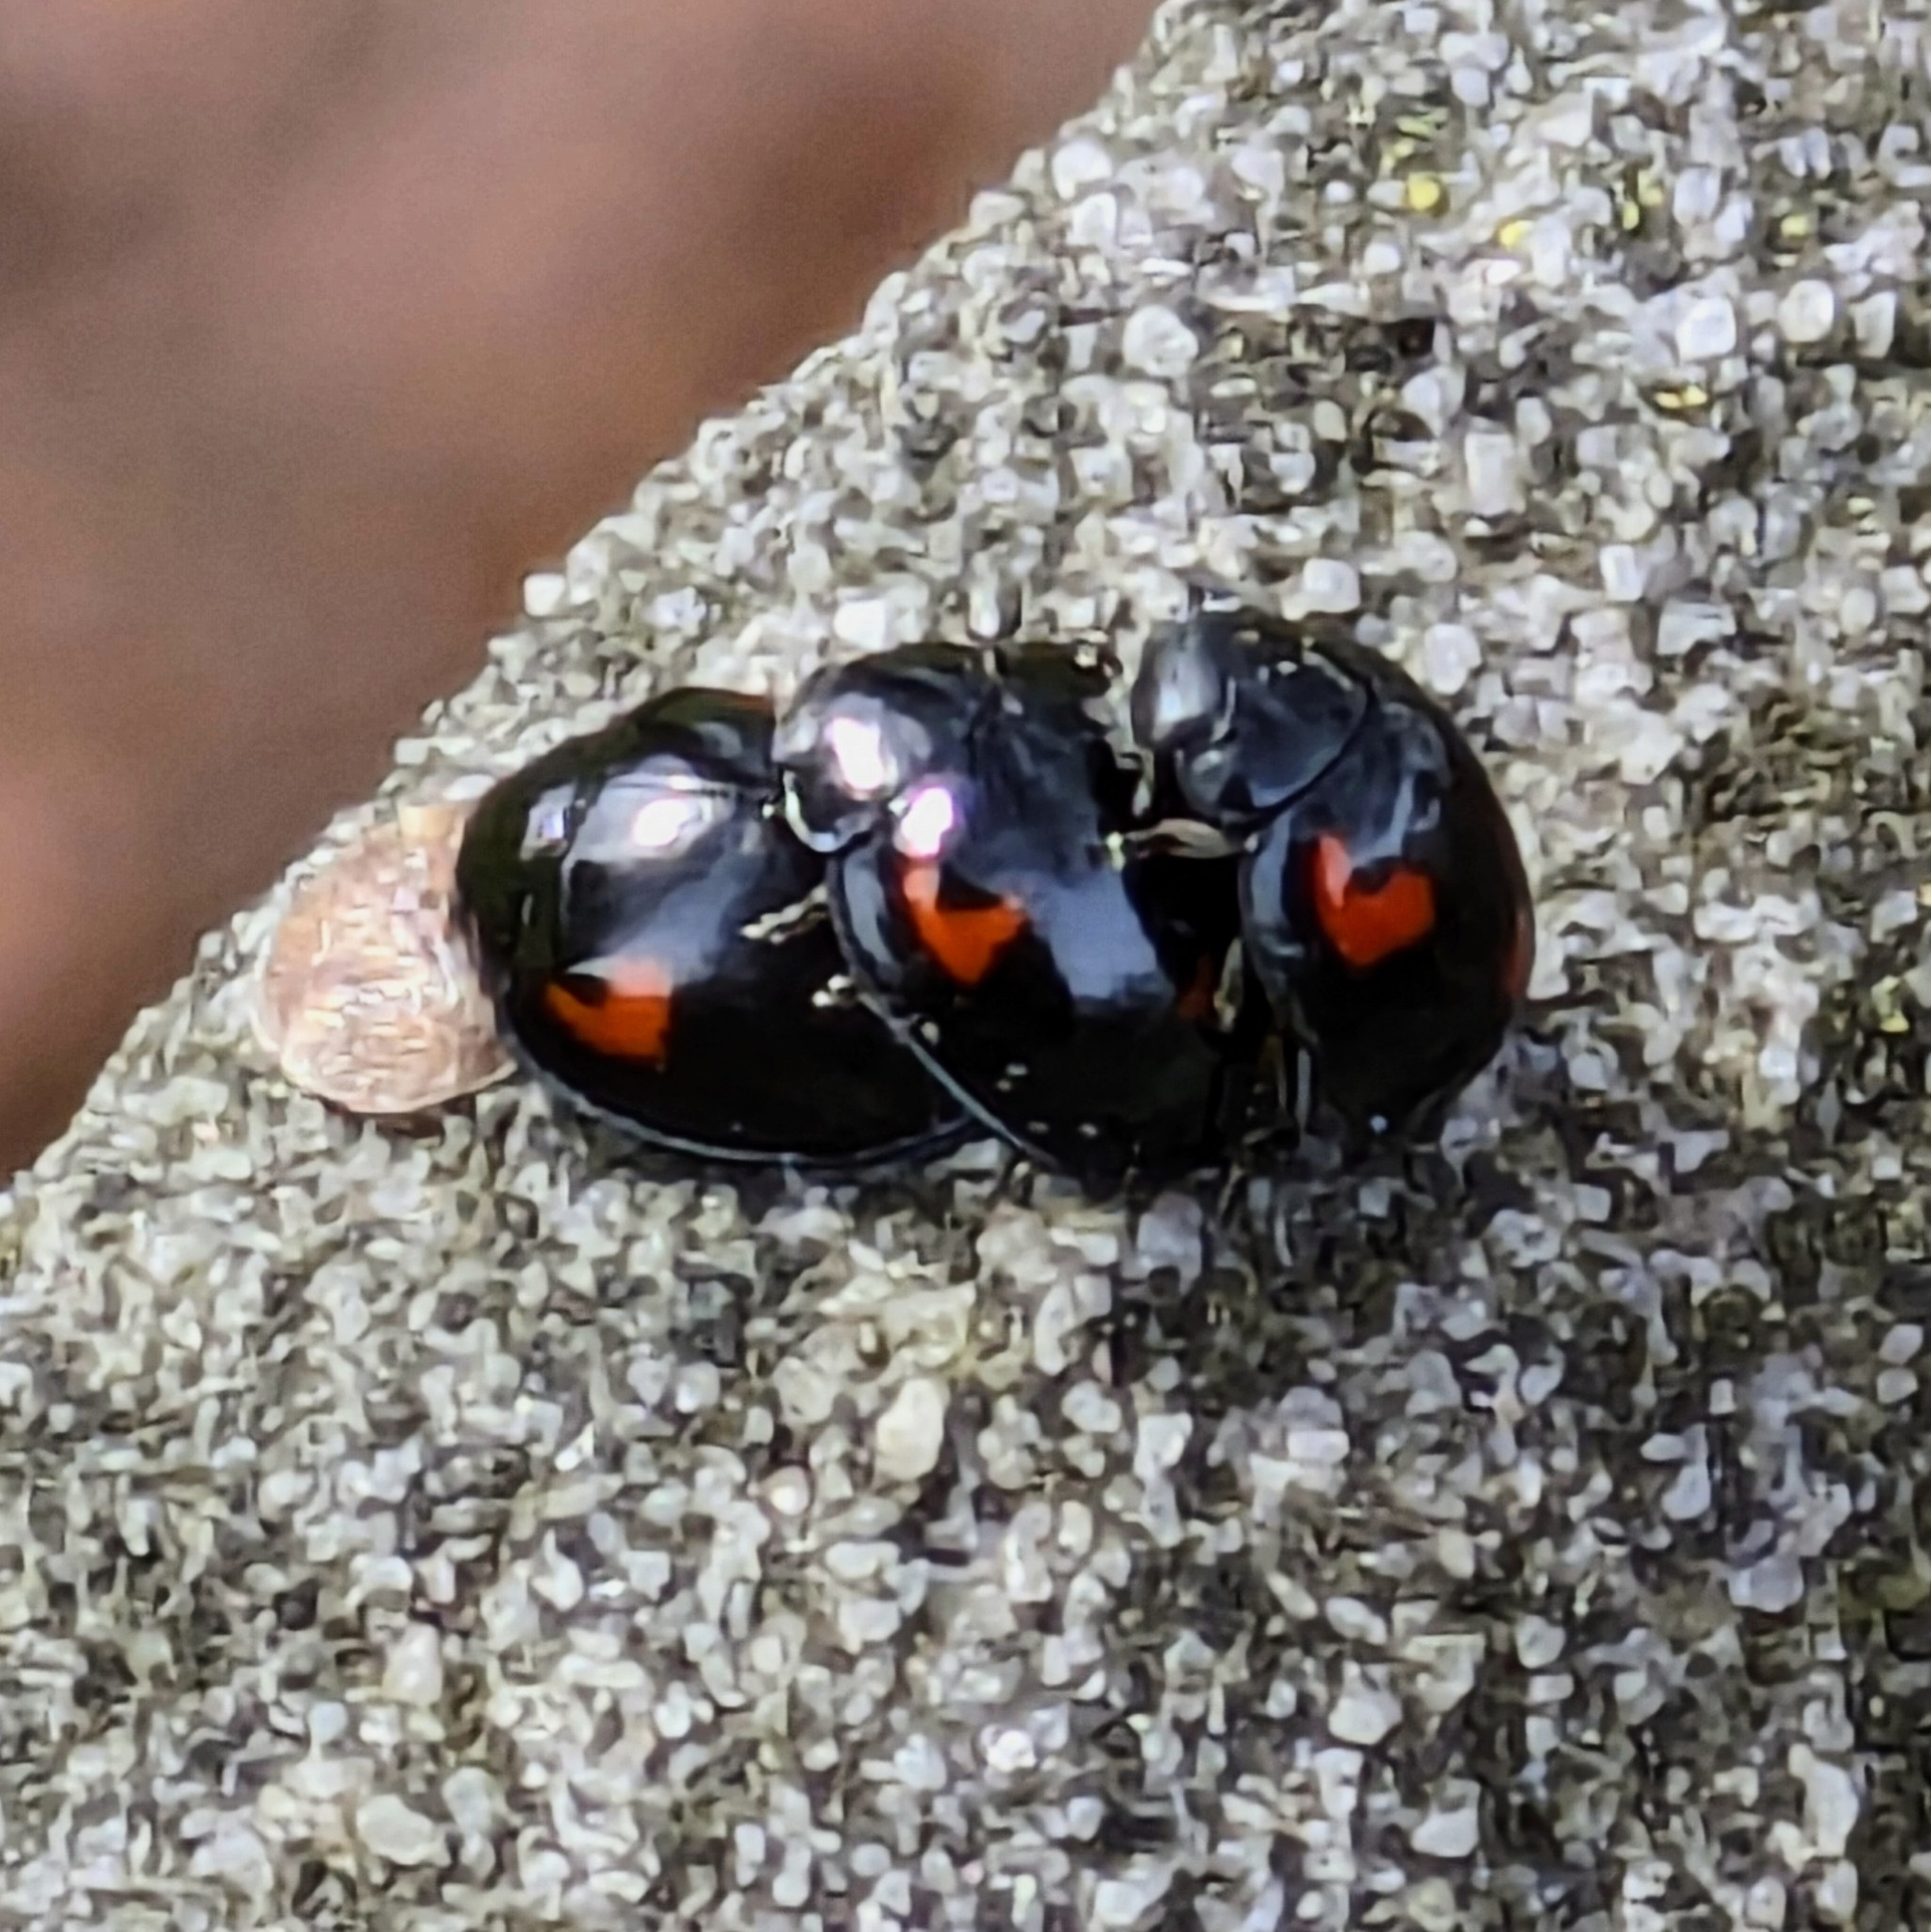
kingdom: Animalia
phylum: Arthropoda
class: Insecta
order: Coleoptera
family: Coccinellidae
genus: Brumus
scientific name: Brumus quadripustulatus
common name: Ladybird beetle
